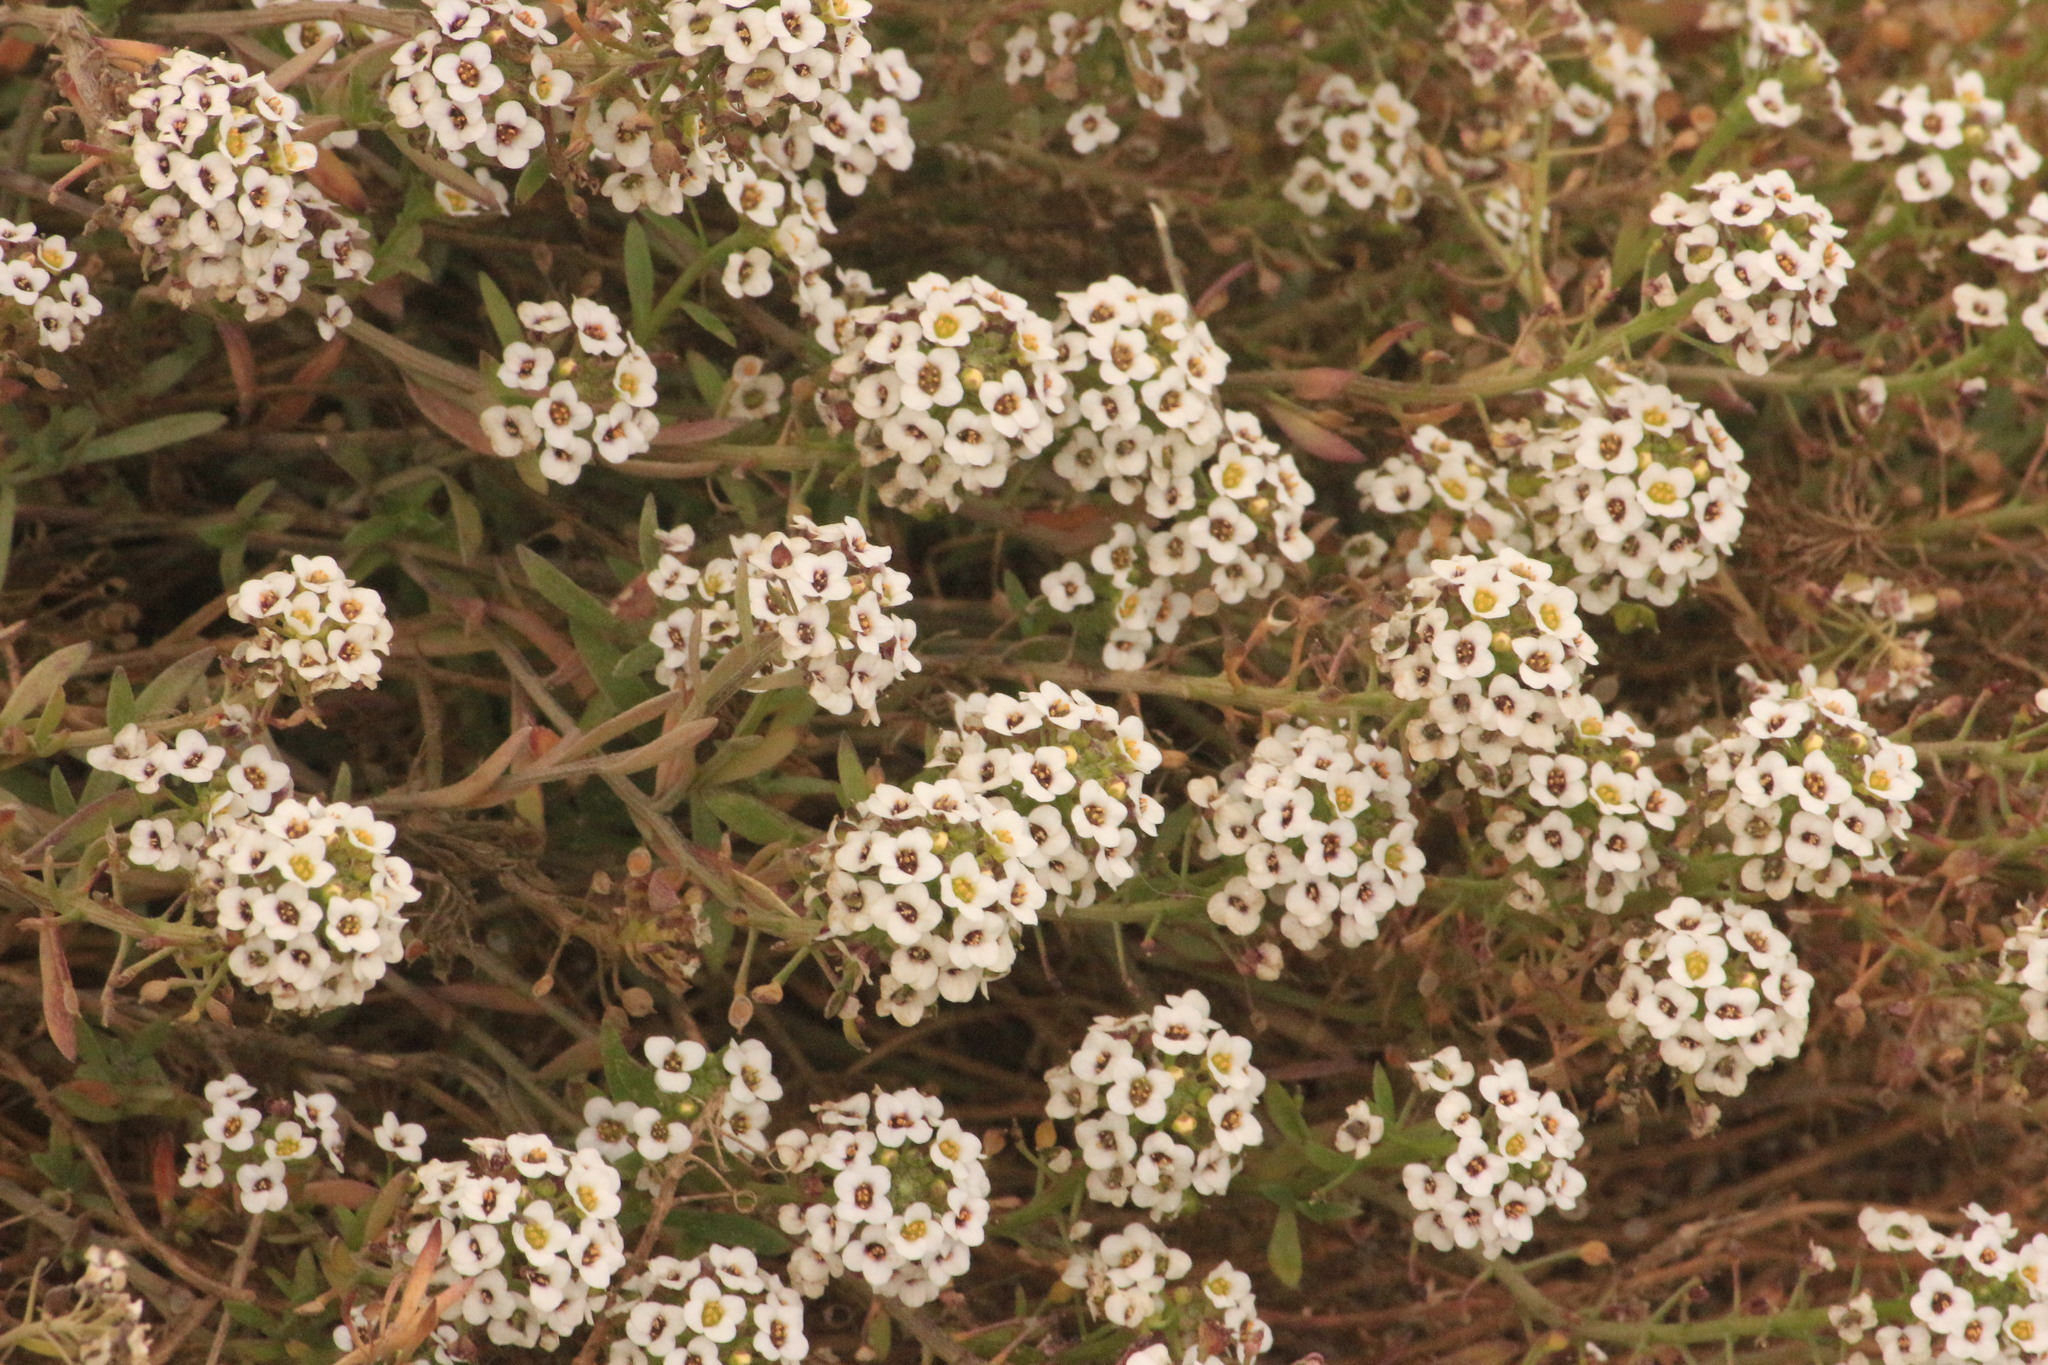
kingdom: Plantae
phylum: Tracheophyta
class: Magnoliopsida
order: Brassicales
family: Brassicaceae
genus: Lobularia
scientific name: Lobularia maritima
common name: Sweet alison
